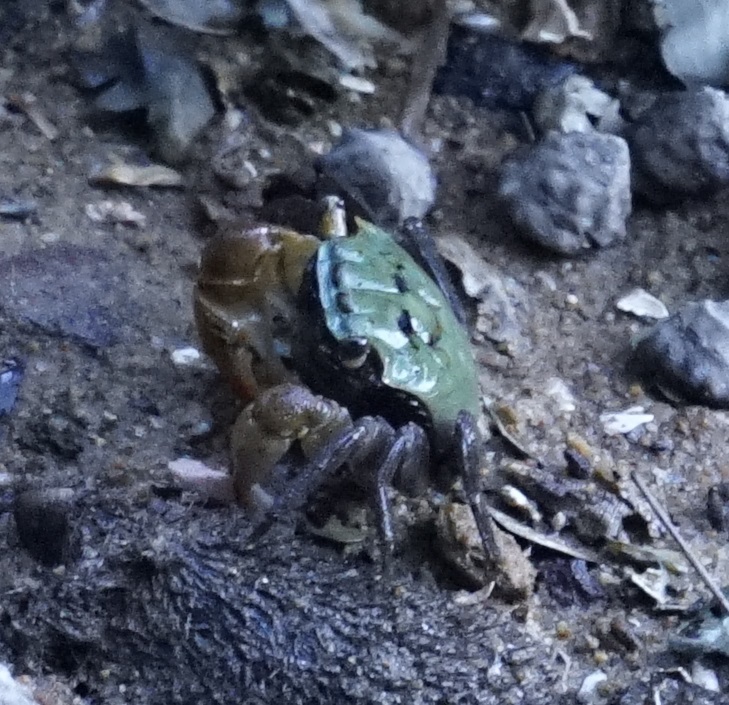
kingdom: Animalia
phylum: Arthropoda
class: Malacostraca
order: Decapoda
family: Sesarmidae
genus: Parasesarma
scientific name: Parasesarma erythodactylum
